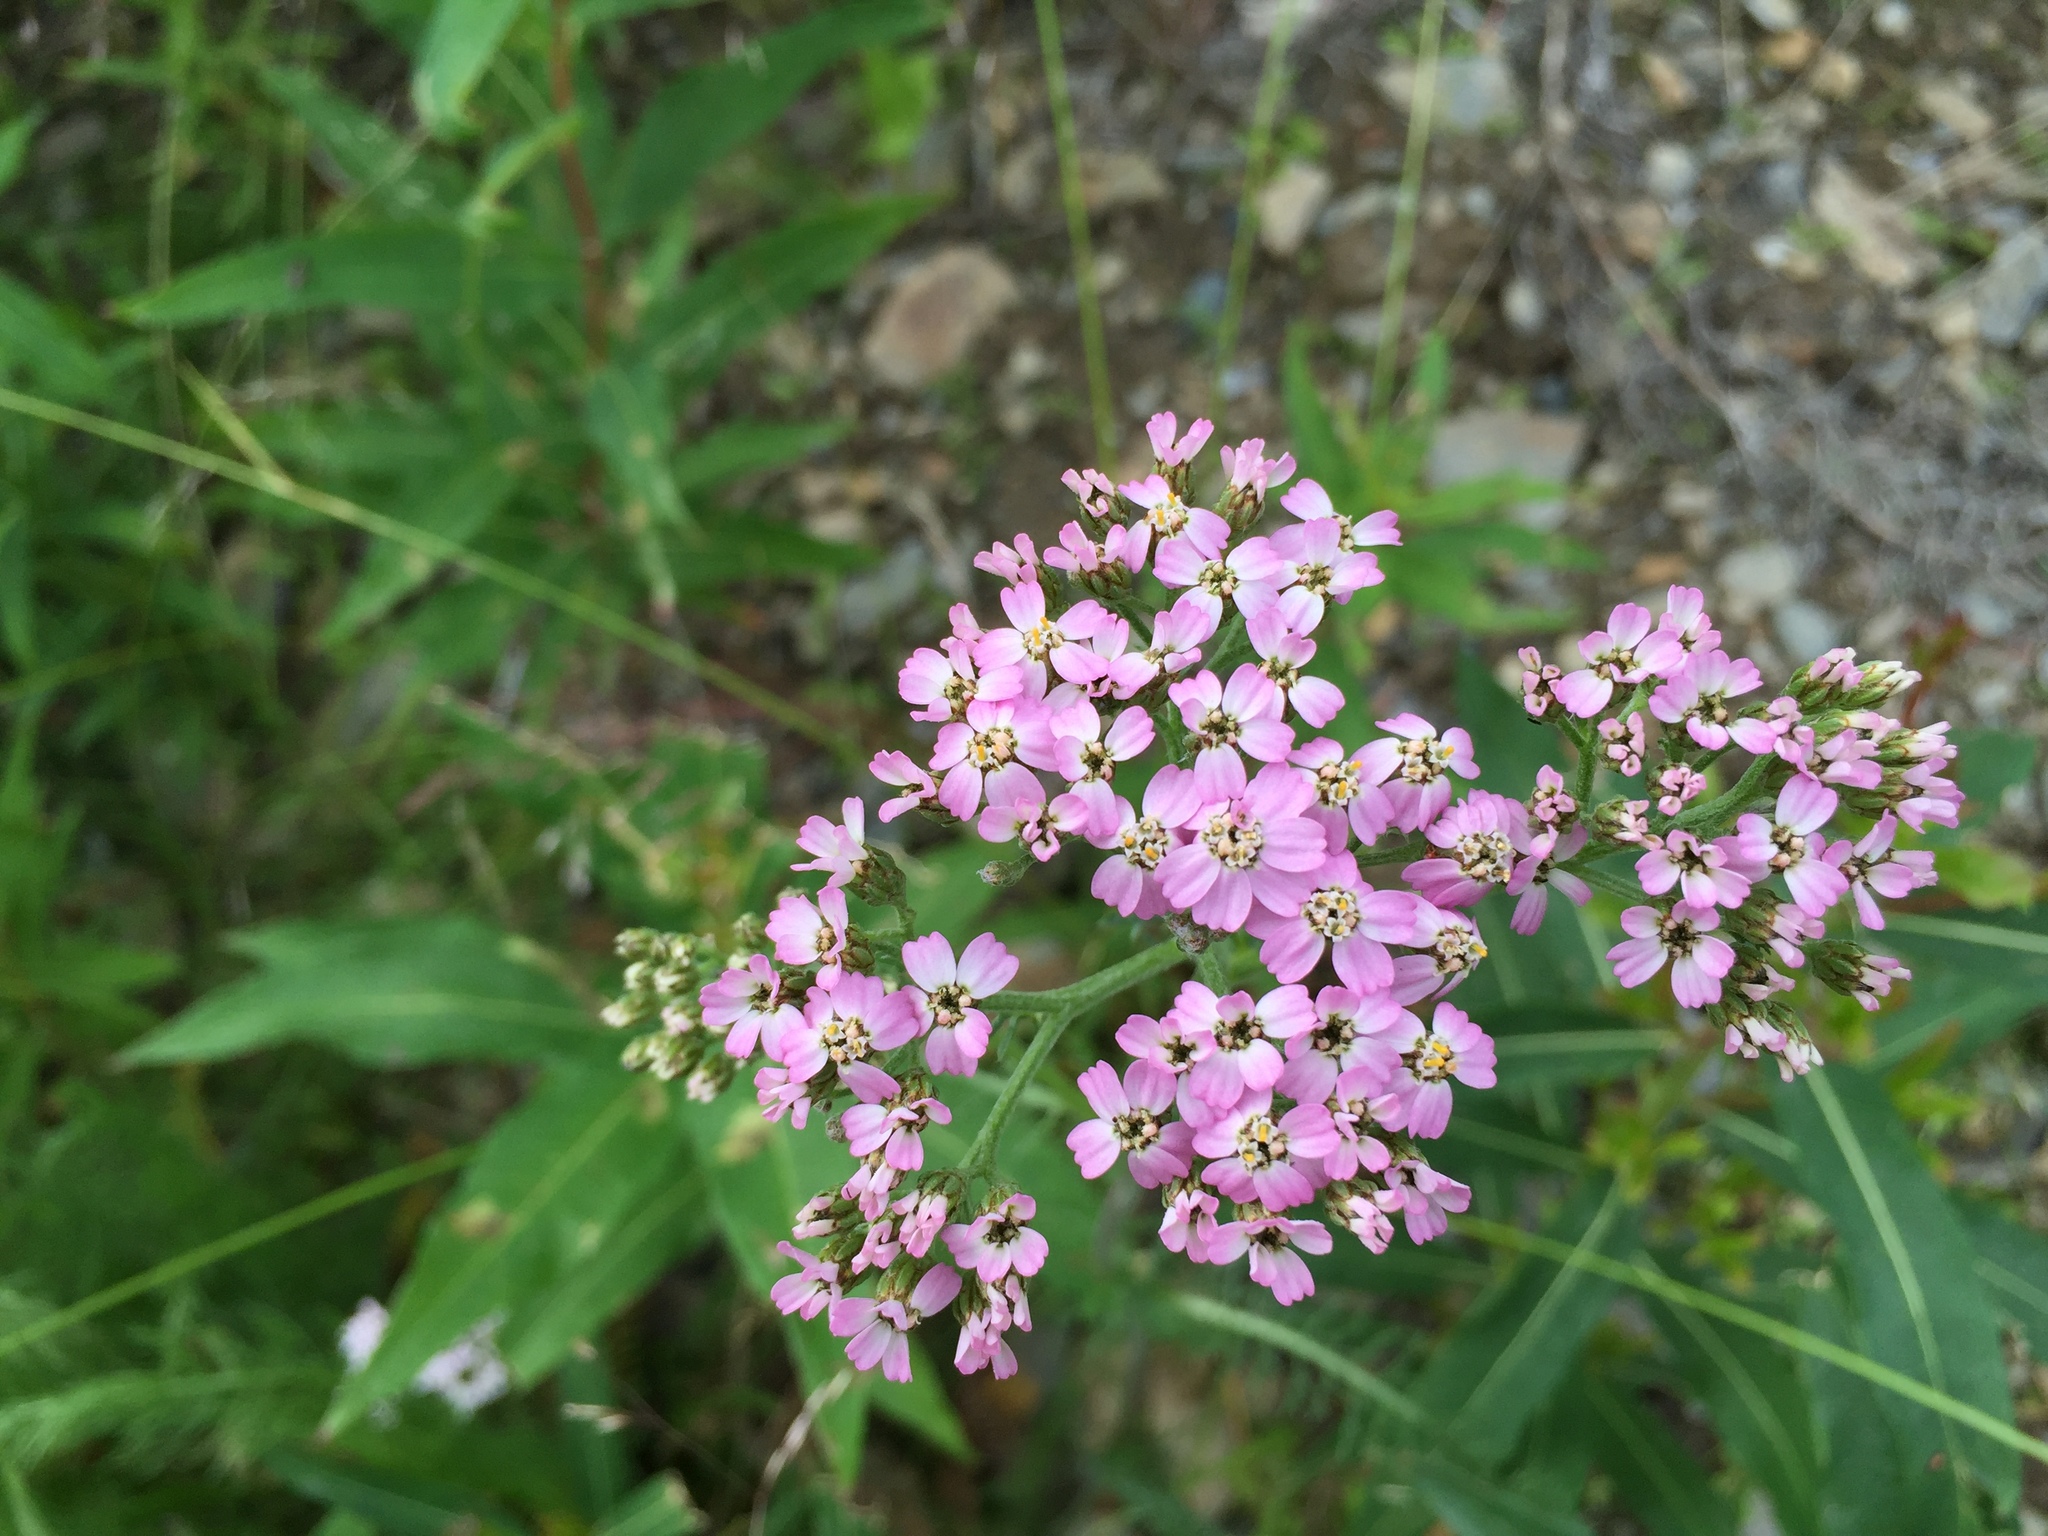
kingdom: Plantae
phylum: Tracheophyta
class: Magnoliopsida
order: Asterales
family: Asteraceae
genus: Achillea
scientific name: Achillea millefolium
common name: Yarrow
